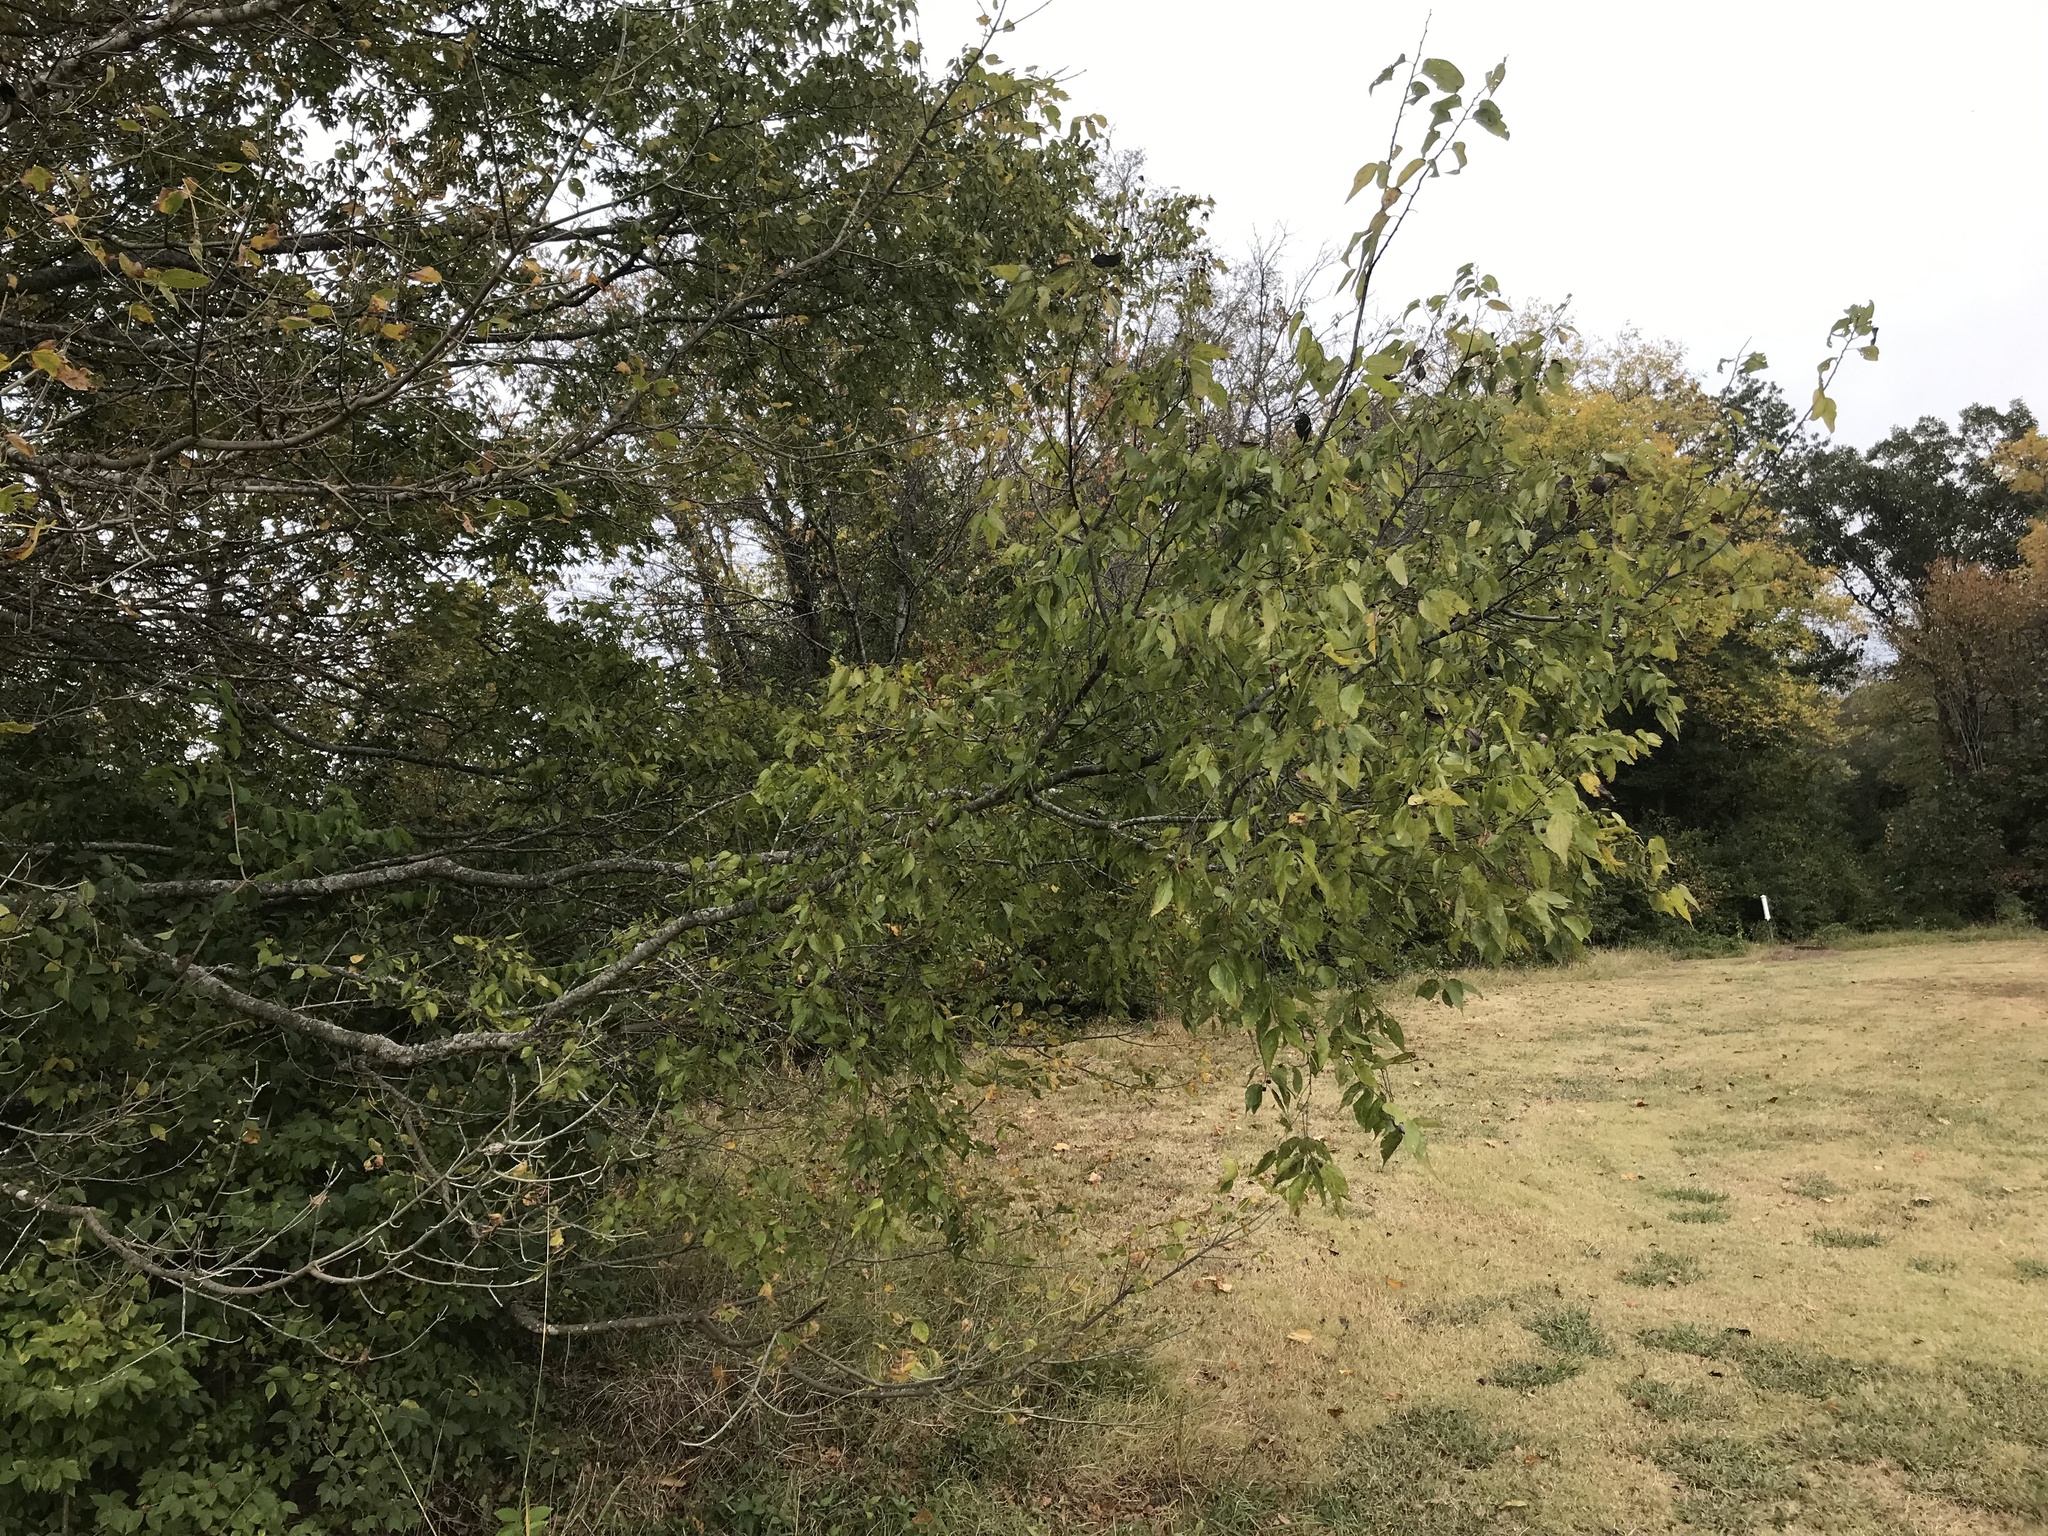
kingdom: Plantae
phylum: Tracheophyta
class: Magnoliopsida
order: Rosales
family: Cannabaceae
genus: Celtis
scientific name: Celtis laevigata
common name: Sugarberry
